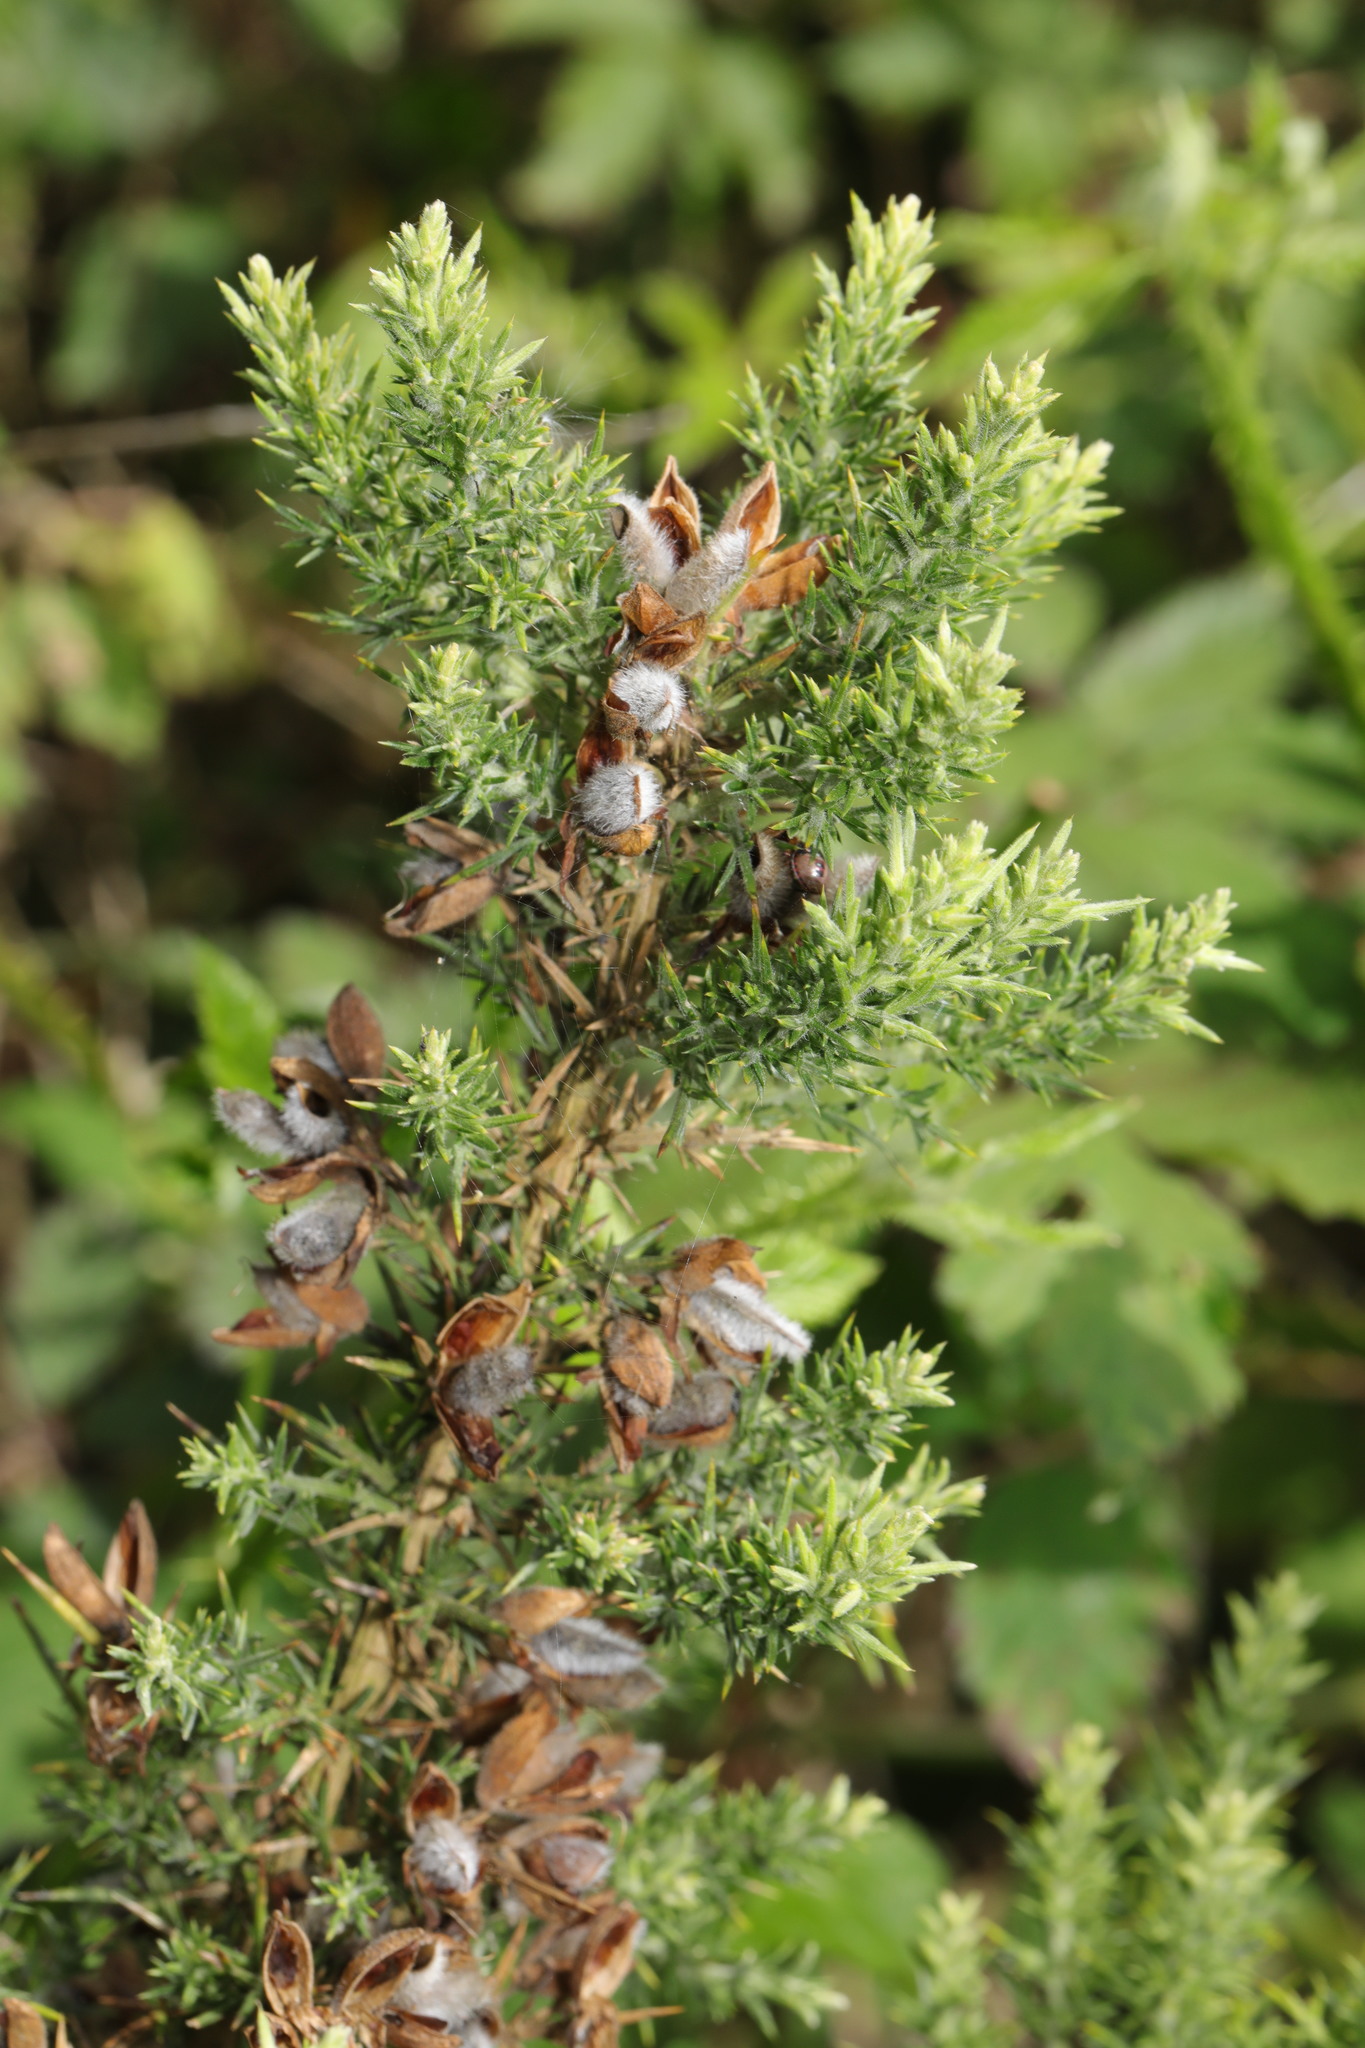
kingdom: Plantae
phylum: Tracheophyta
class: Magnoliopsida
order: Fabales
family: Fabaceae
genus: Ulex
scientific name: Ulex europaeus
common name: Common gorse
